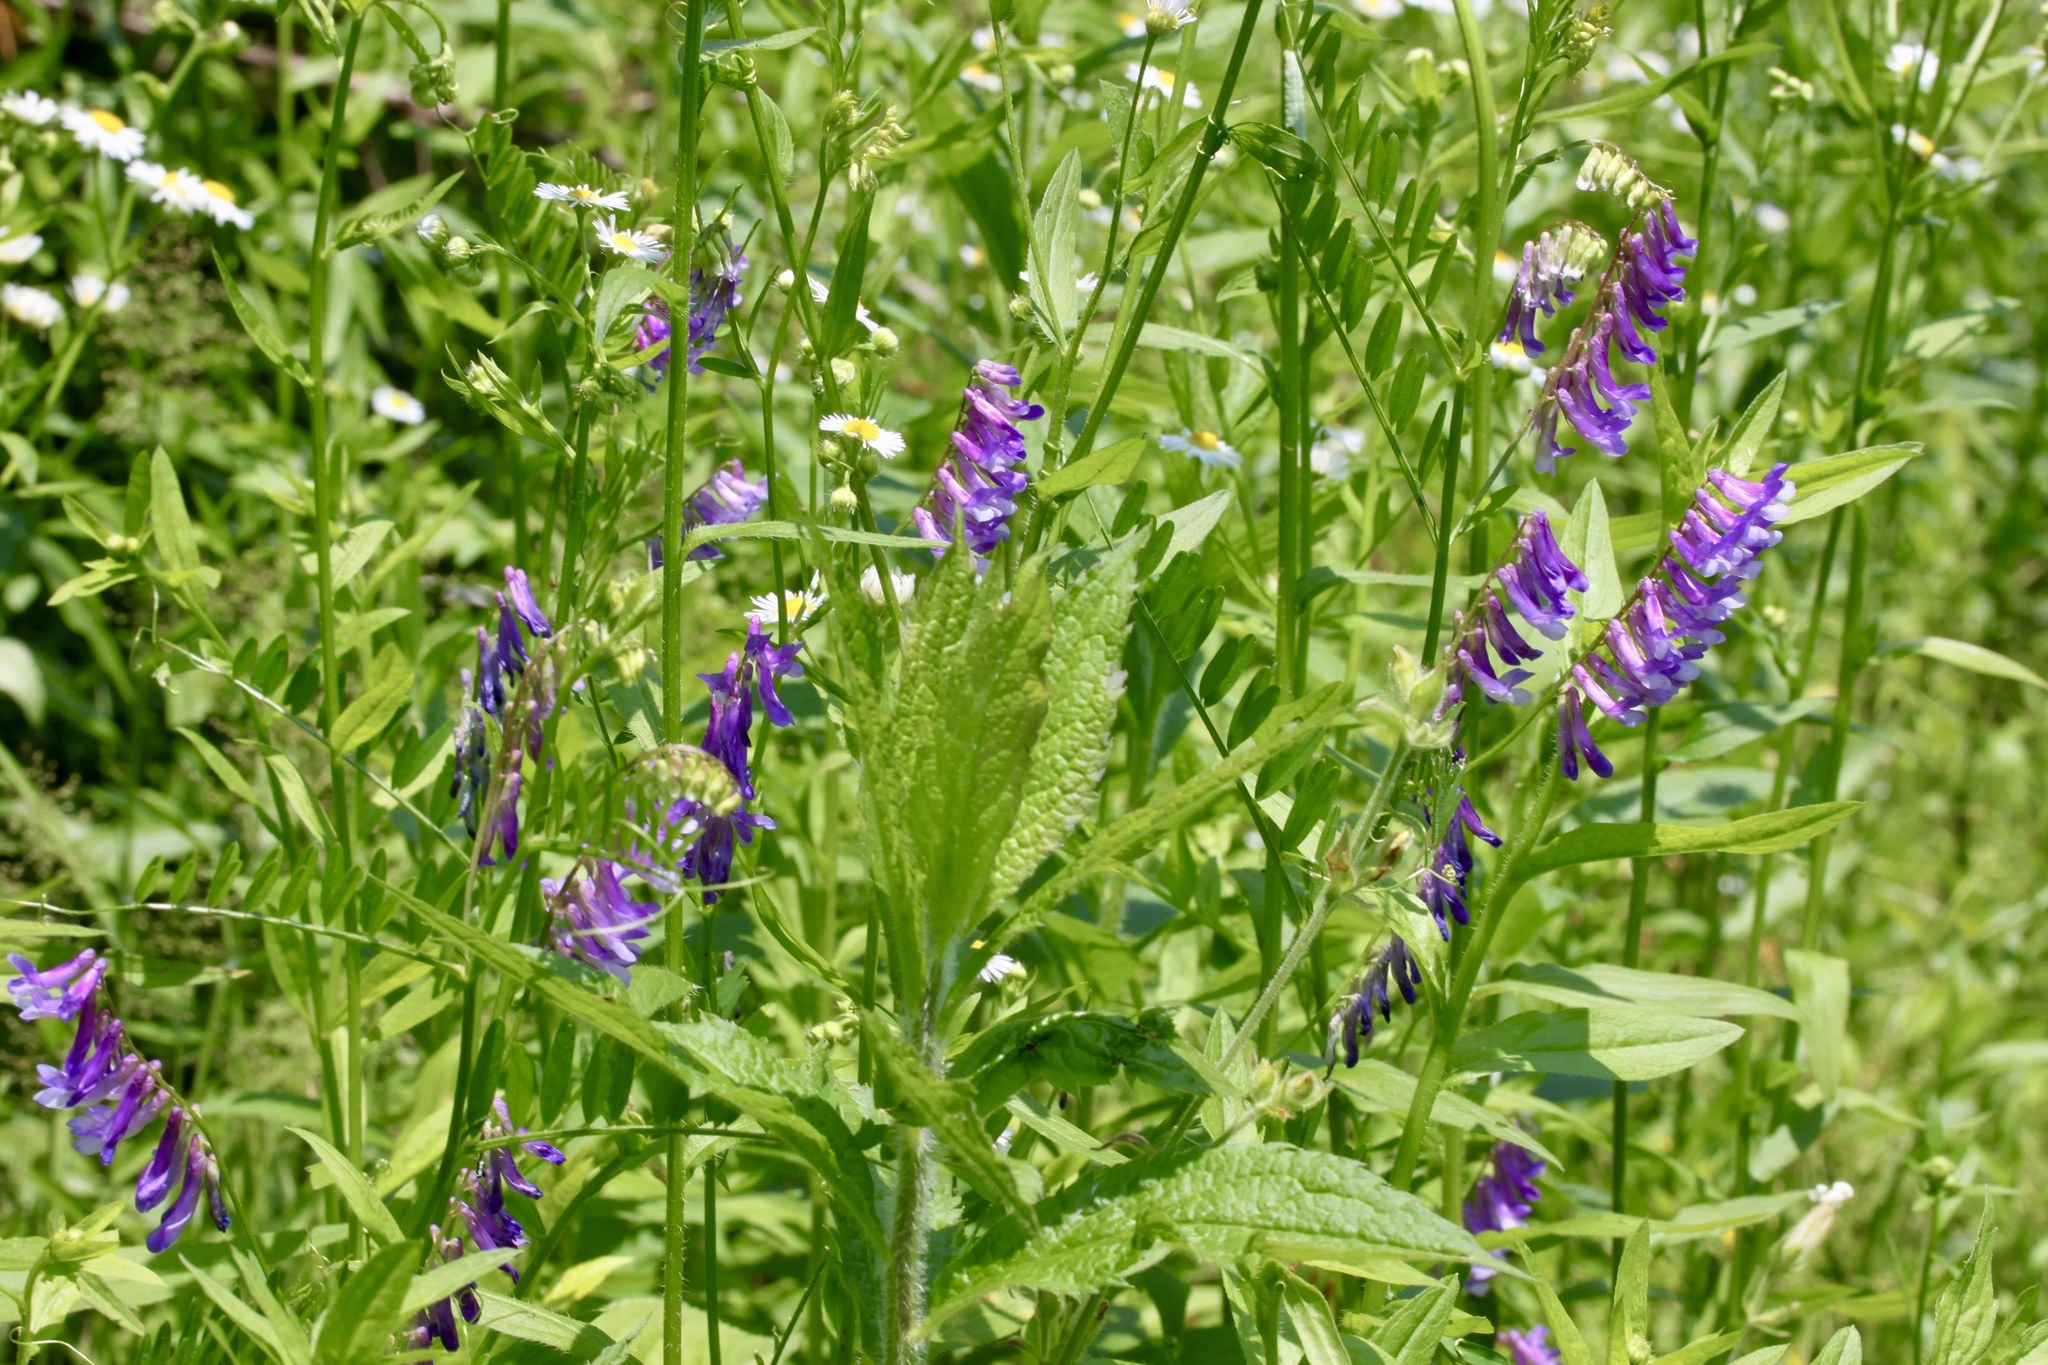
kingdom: Plantae
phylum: Tracheophyta
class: Magnoliopsida
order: Fabales
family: Fabaceae
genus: Vicia
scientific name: Vicia villosa
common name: Fodder vetch
